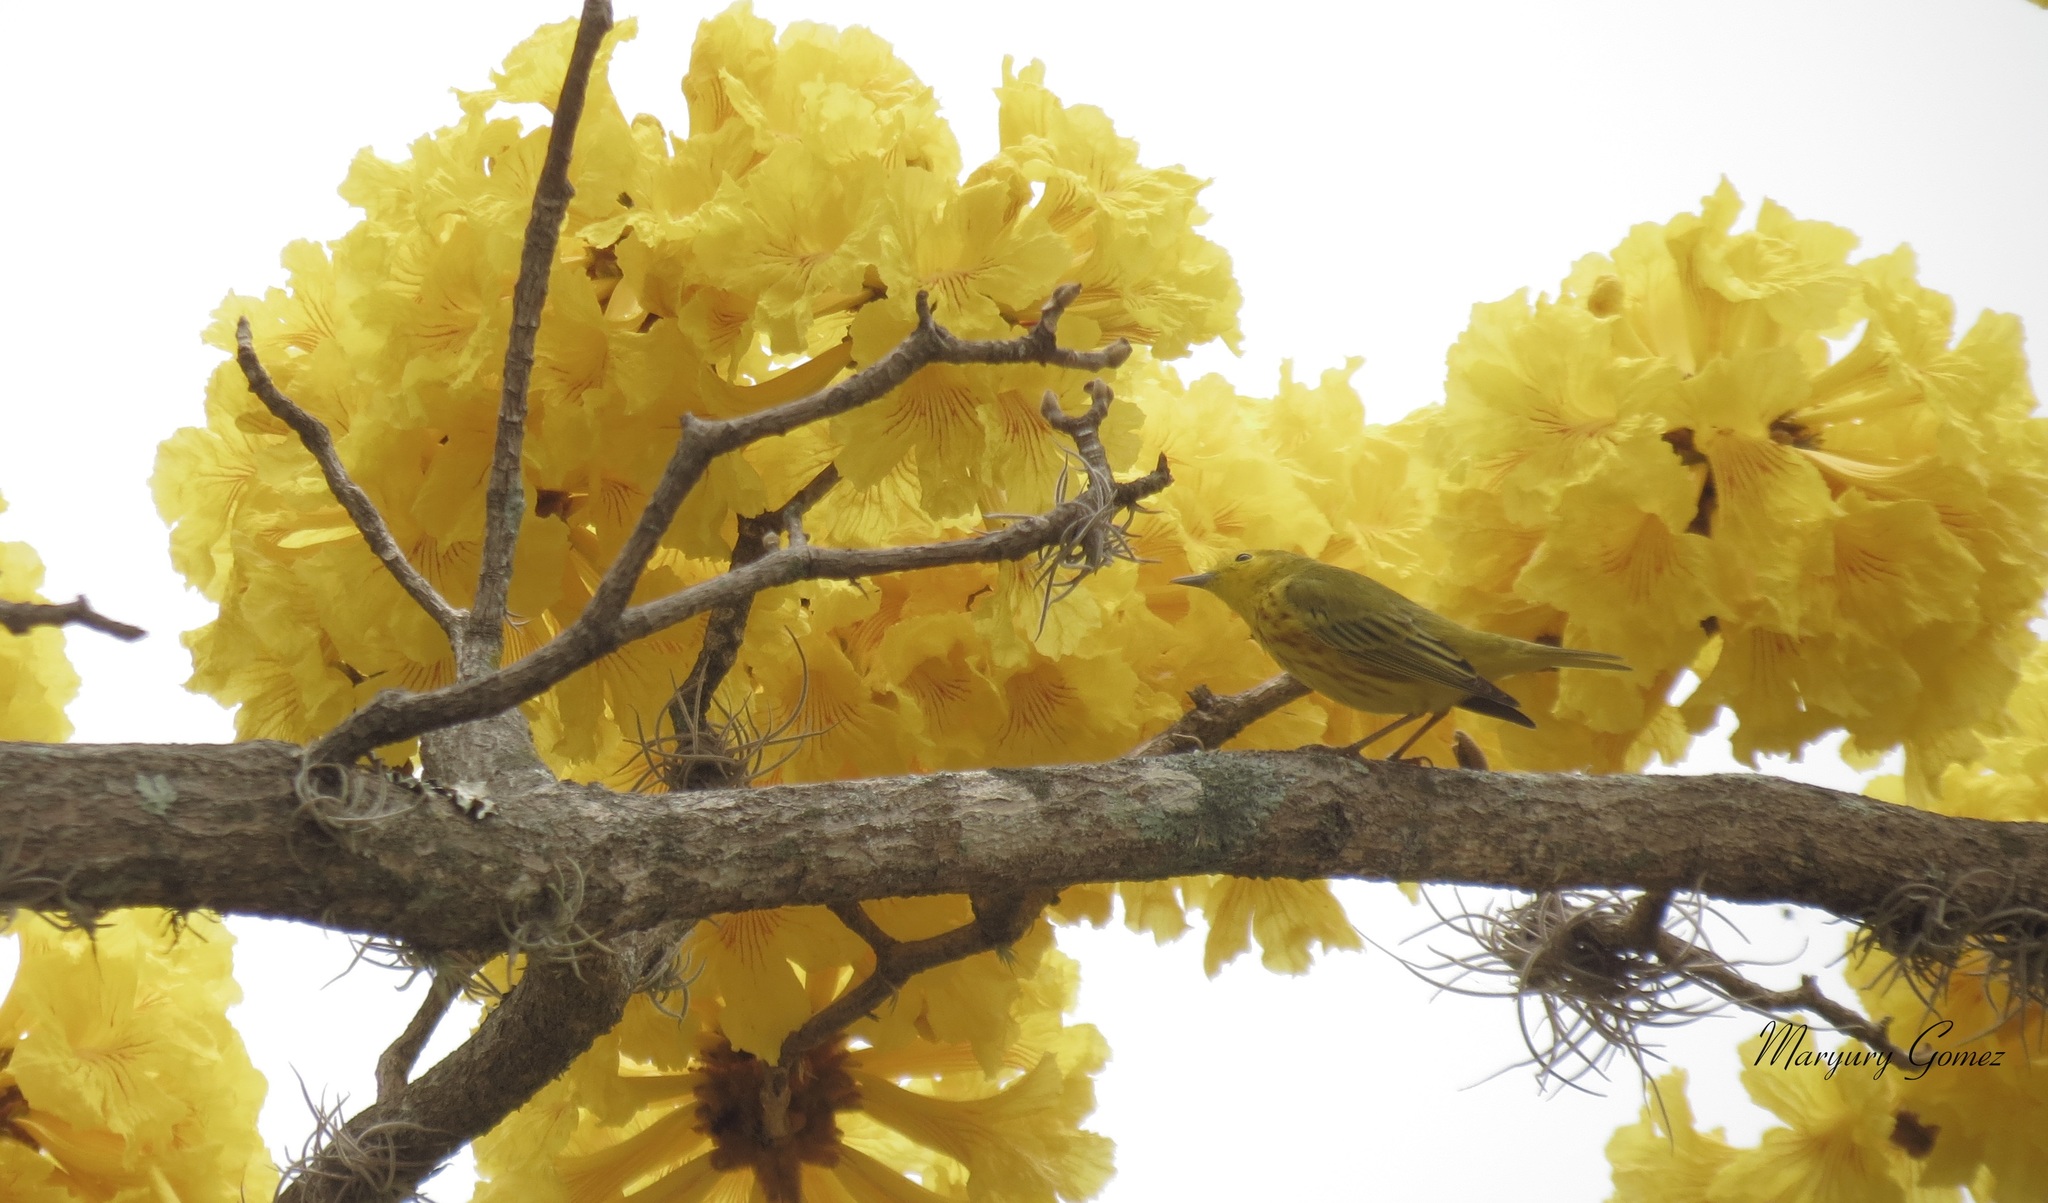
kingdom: Animalia
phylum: Chordata
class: Aves
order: Passeriformes
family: Parulidae
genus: Setophaga
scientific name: Setophaga petechia
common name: Yellow warbler
